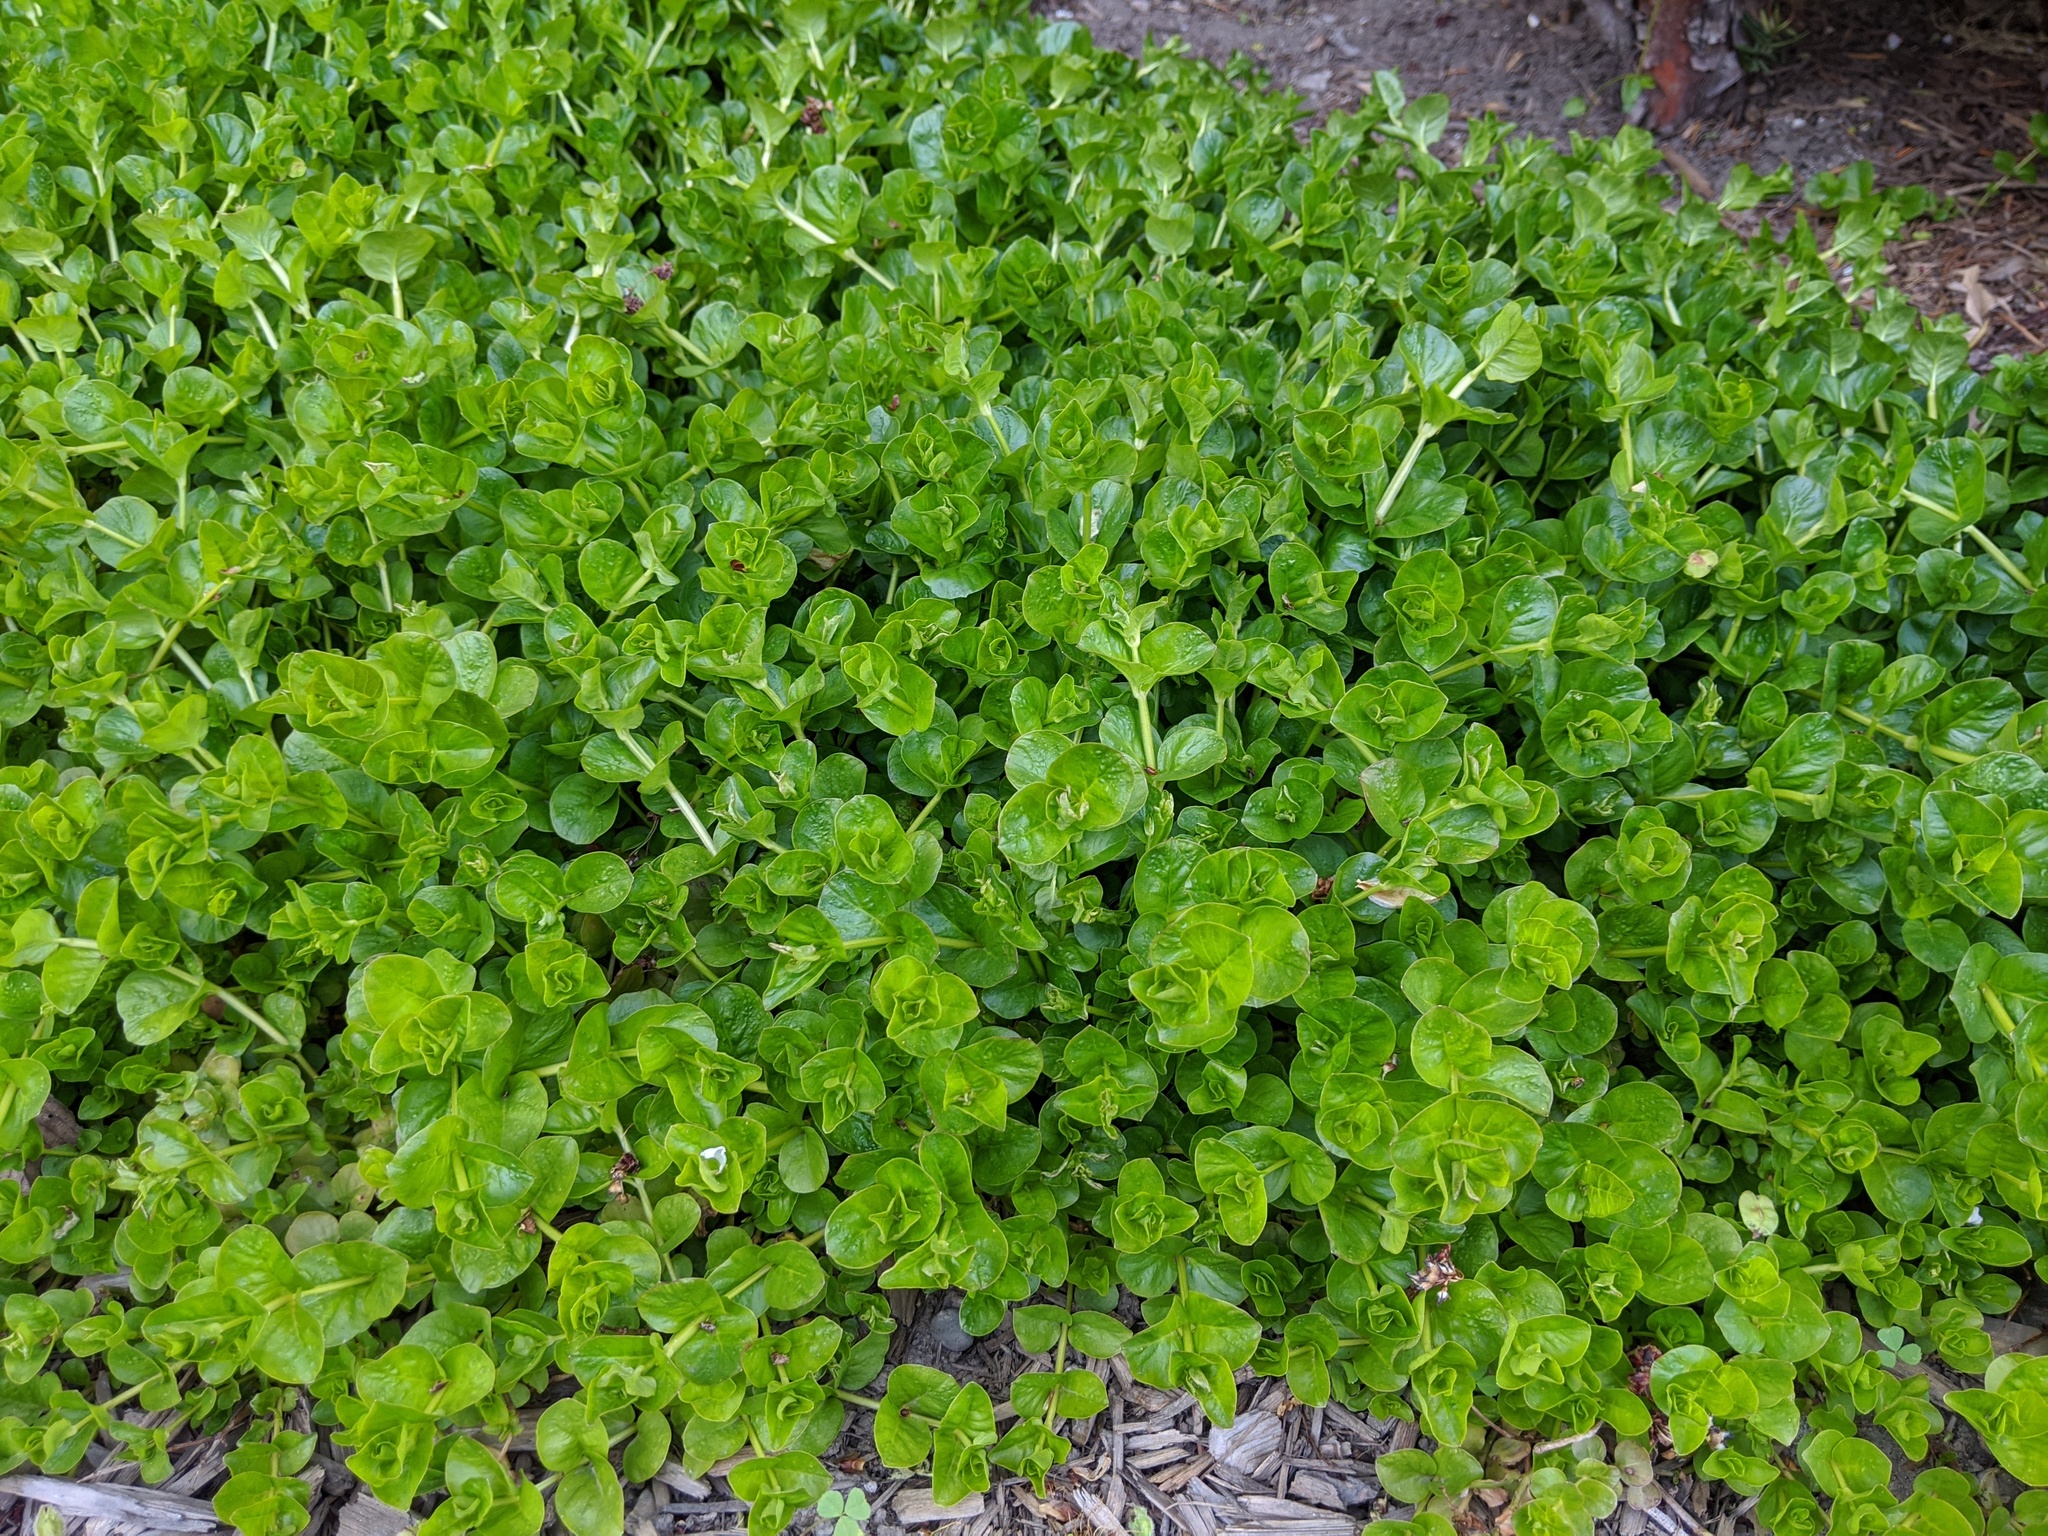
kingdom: Plantae
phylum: Tracheophyta
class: Magnoliopsida
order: Ericales
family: Primulaceae
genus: Lysimachia
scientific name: Lysimachia nummularia
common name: Moneywort
